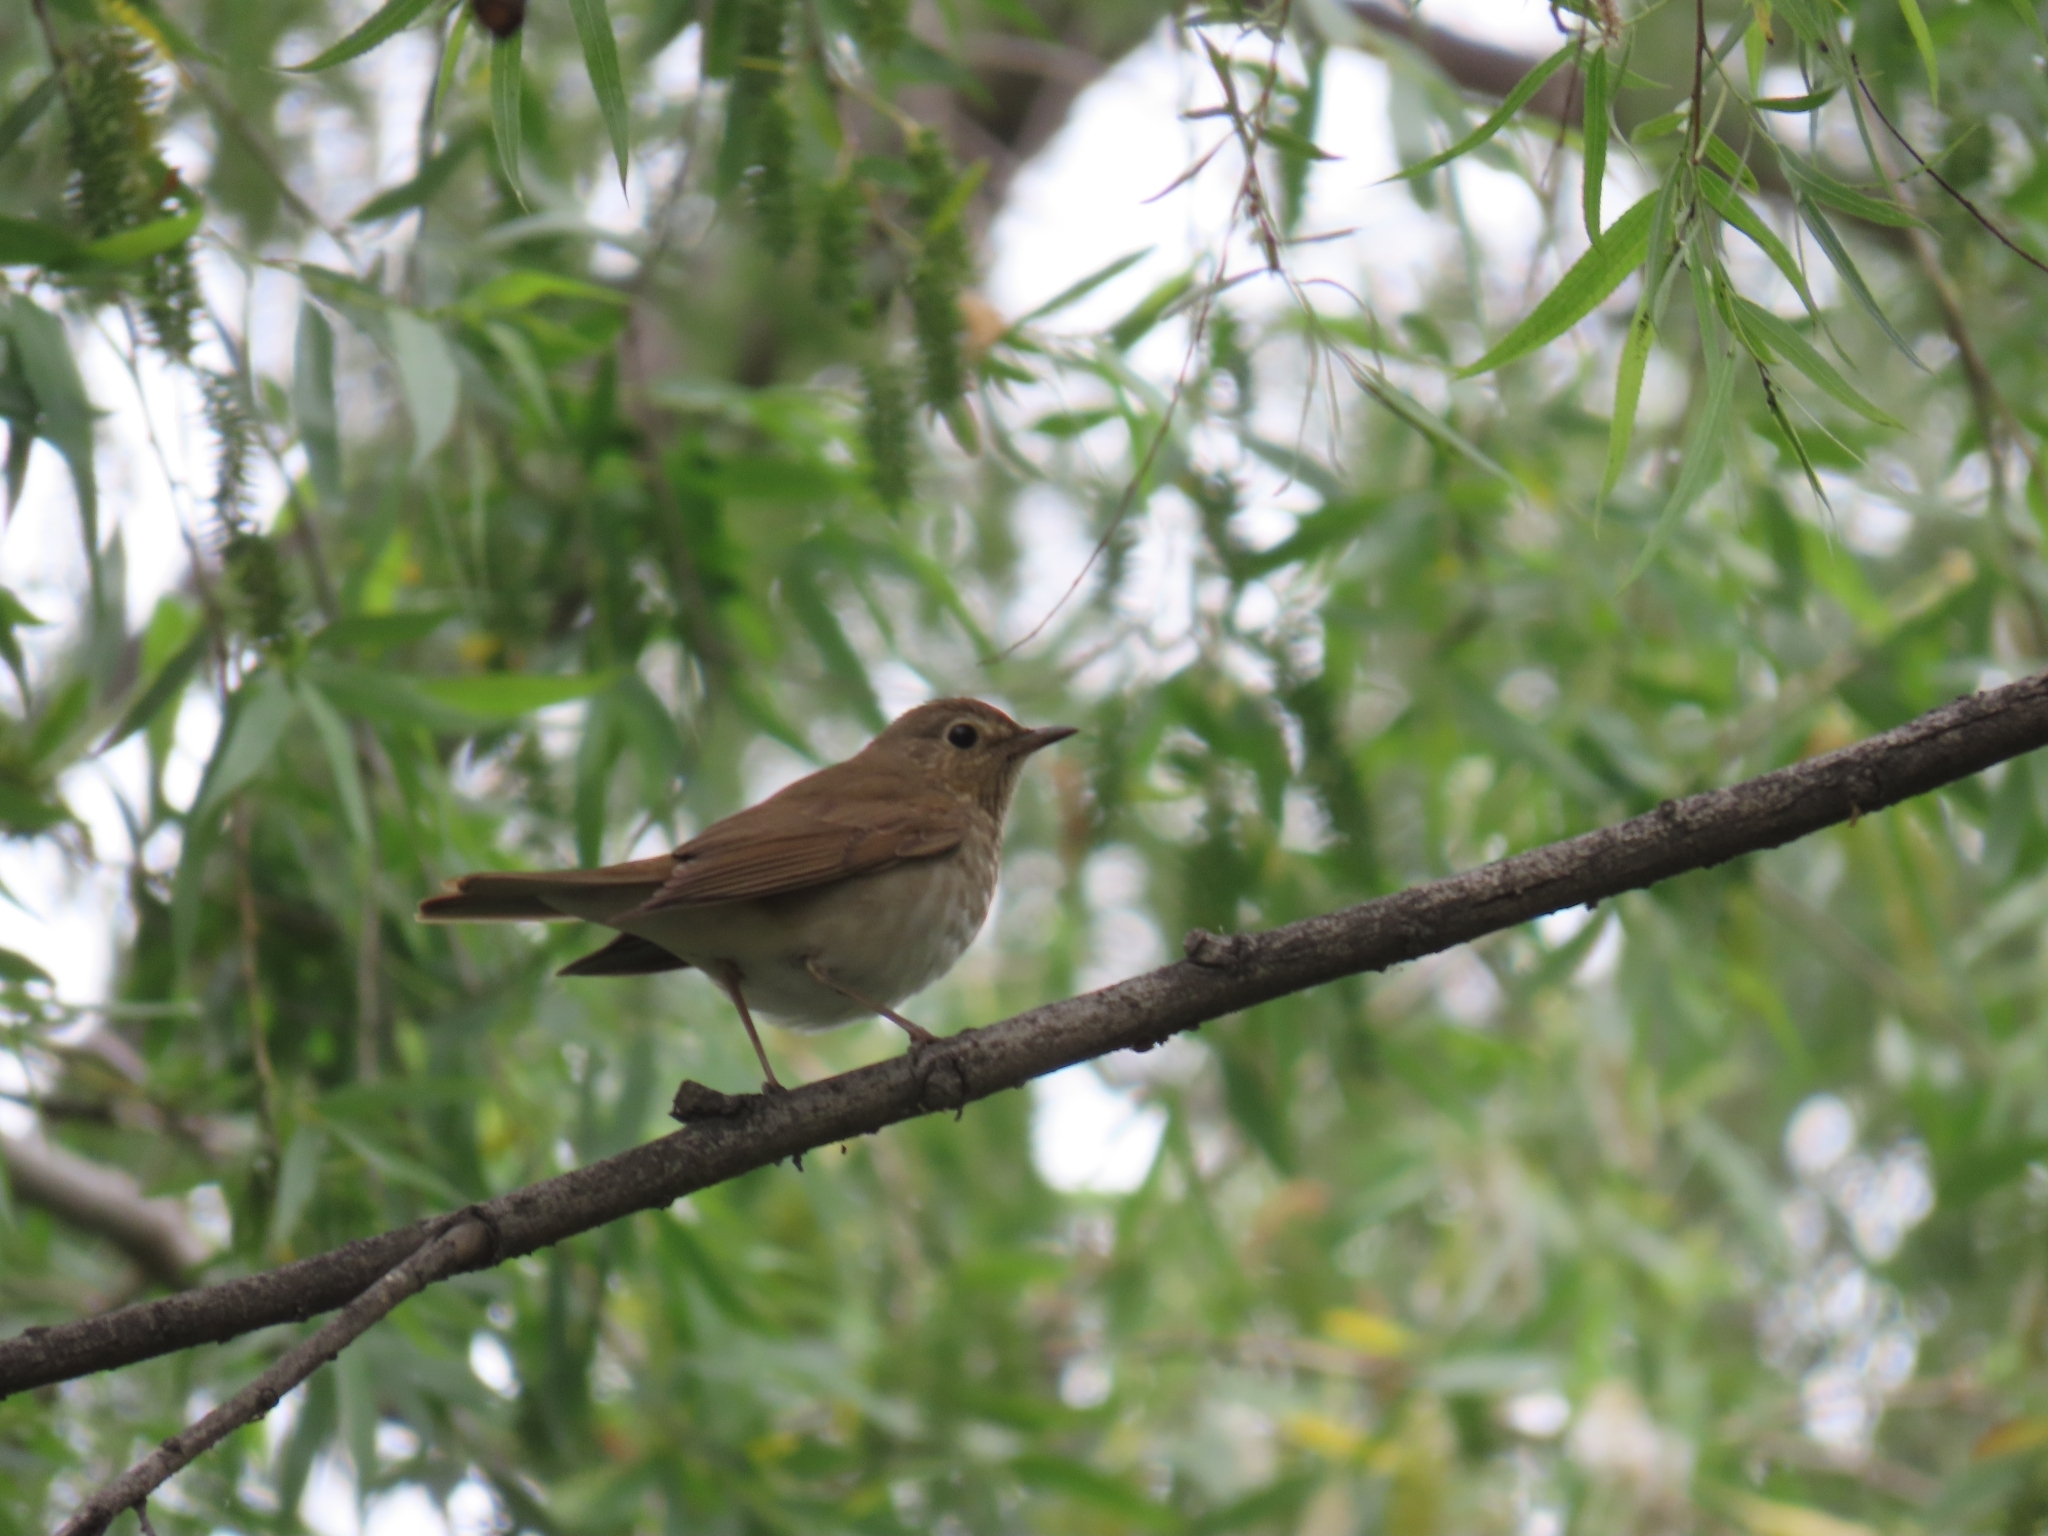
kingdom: Animalia
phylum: Chordata
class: Aves
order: Passeriformes
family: Turdidae
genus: Catharus
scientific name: Catharus ustulatus
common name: Swainson's thrush
